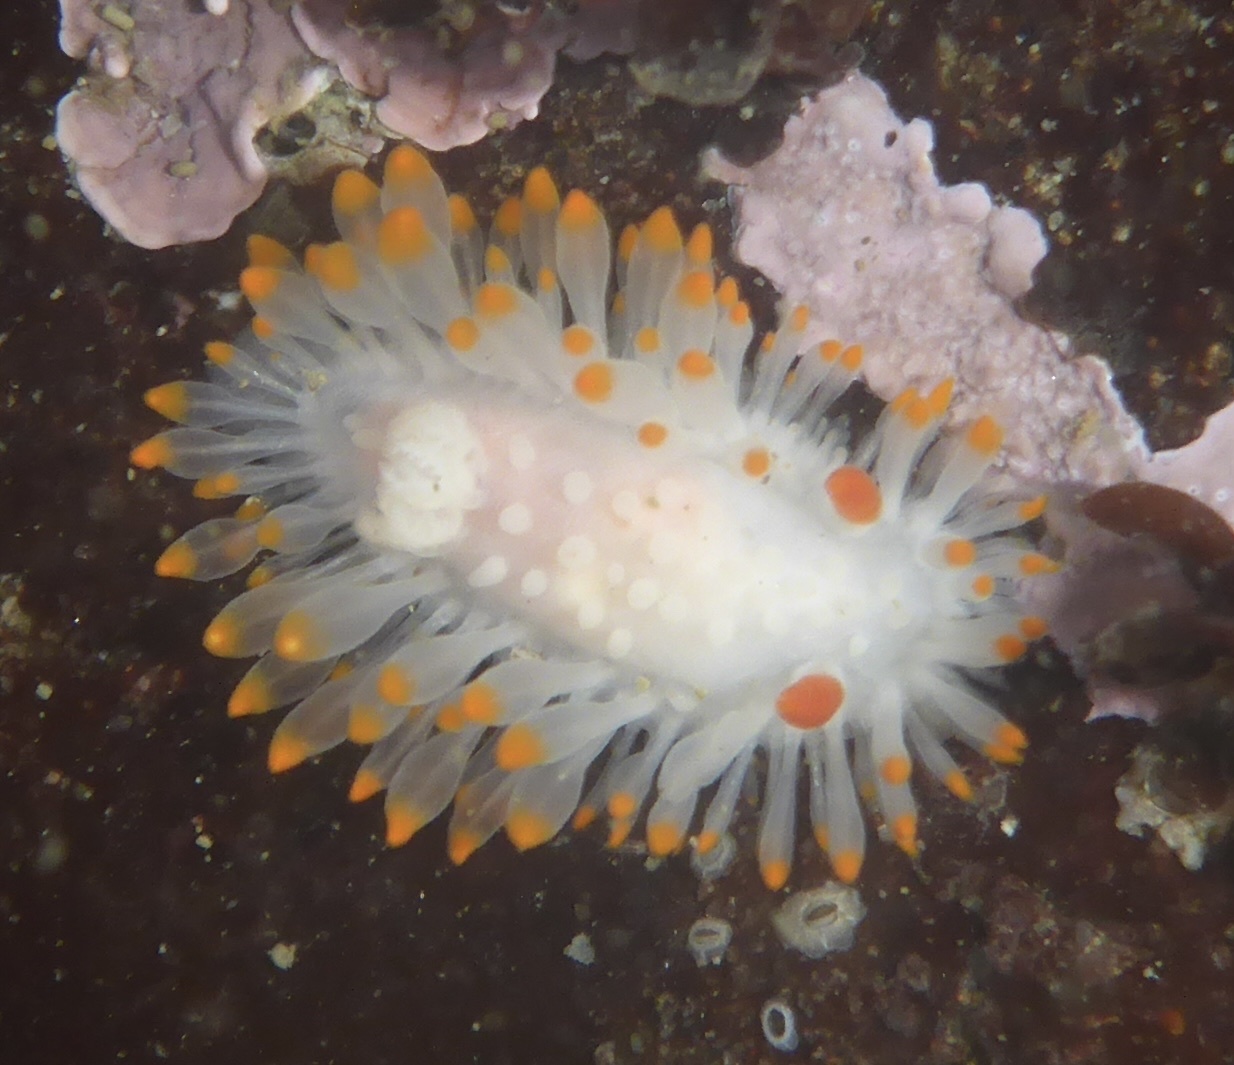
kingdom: Animalia
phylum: Mollusca
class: Gastropoda
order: Nudibranchia
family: Polyceridae
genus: Limacia
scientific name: Limacia cockerelli
